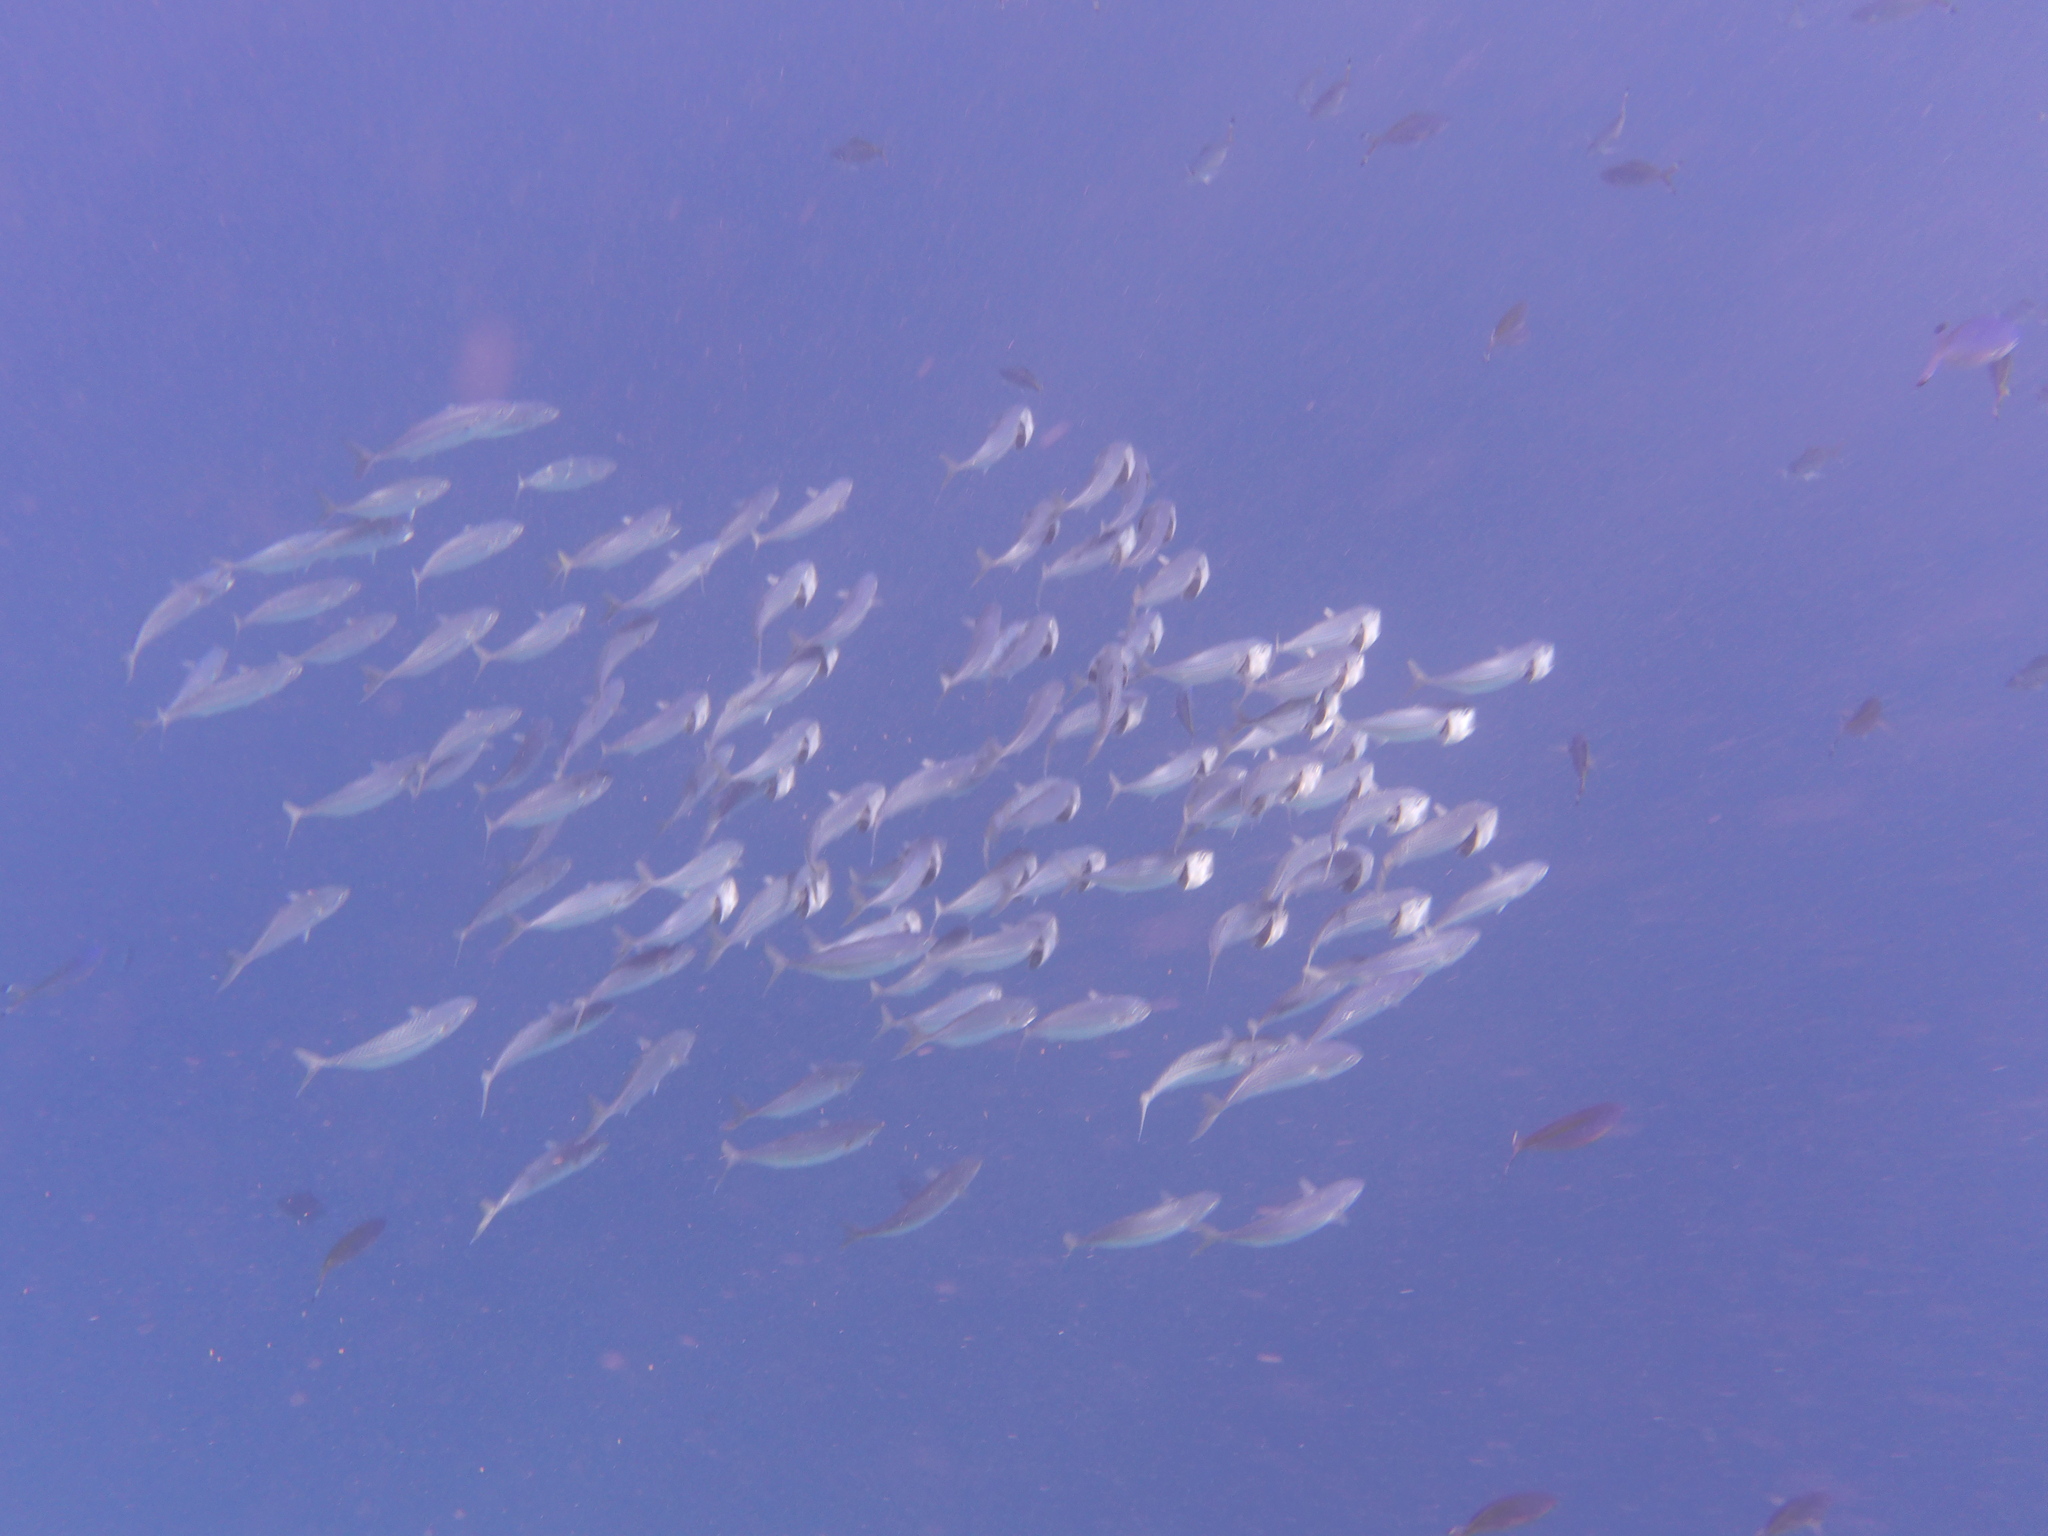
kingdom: Animalia
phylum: Chordata
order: Perciformes
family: Scombridae
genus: Rastrelliger
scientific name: Rastrelliger kanagurta
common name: Indian mackerel
